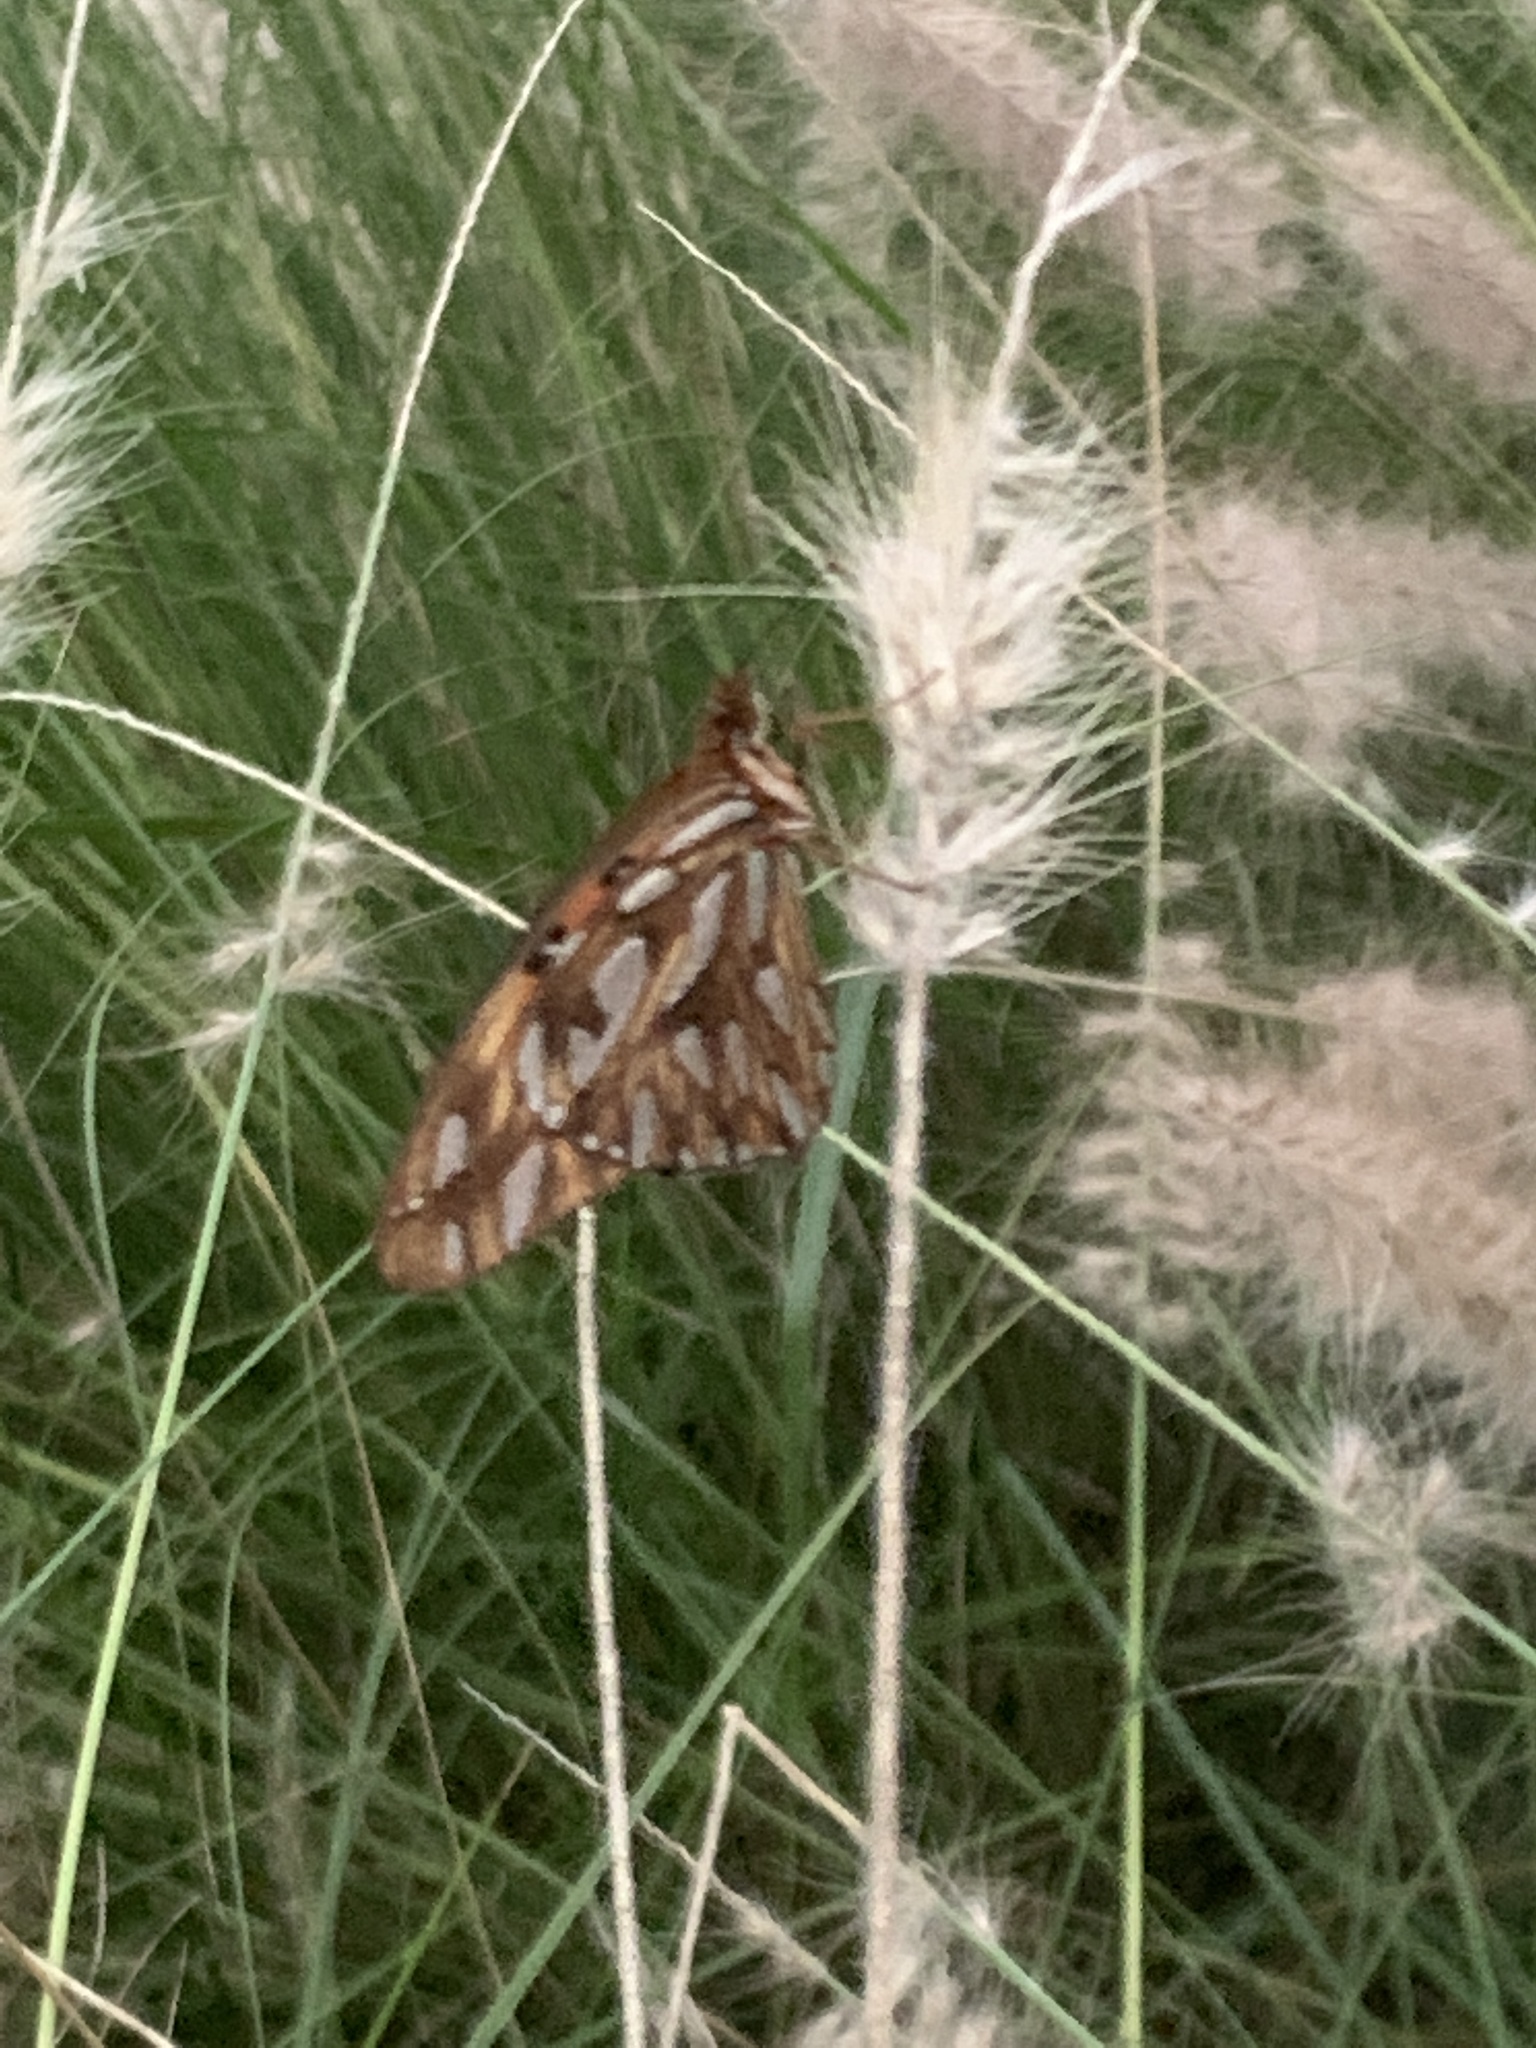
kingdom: Animalia
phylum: Arthropoda
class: Insecta
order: Lepidoptera
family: Nymphalidae
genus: Dione
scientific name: Dione vanillae
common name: Gulf fritillary
